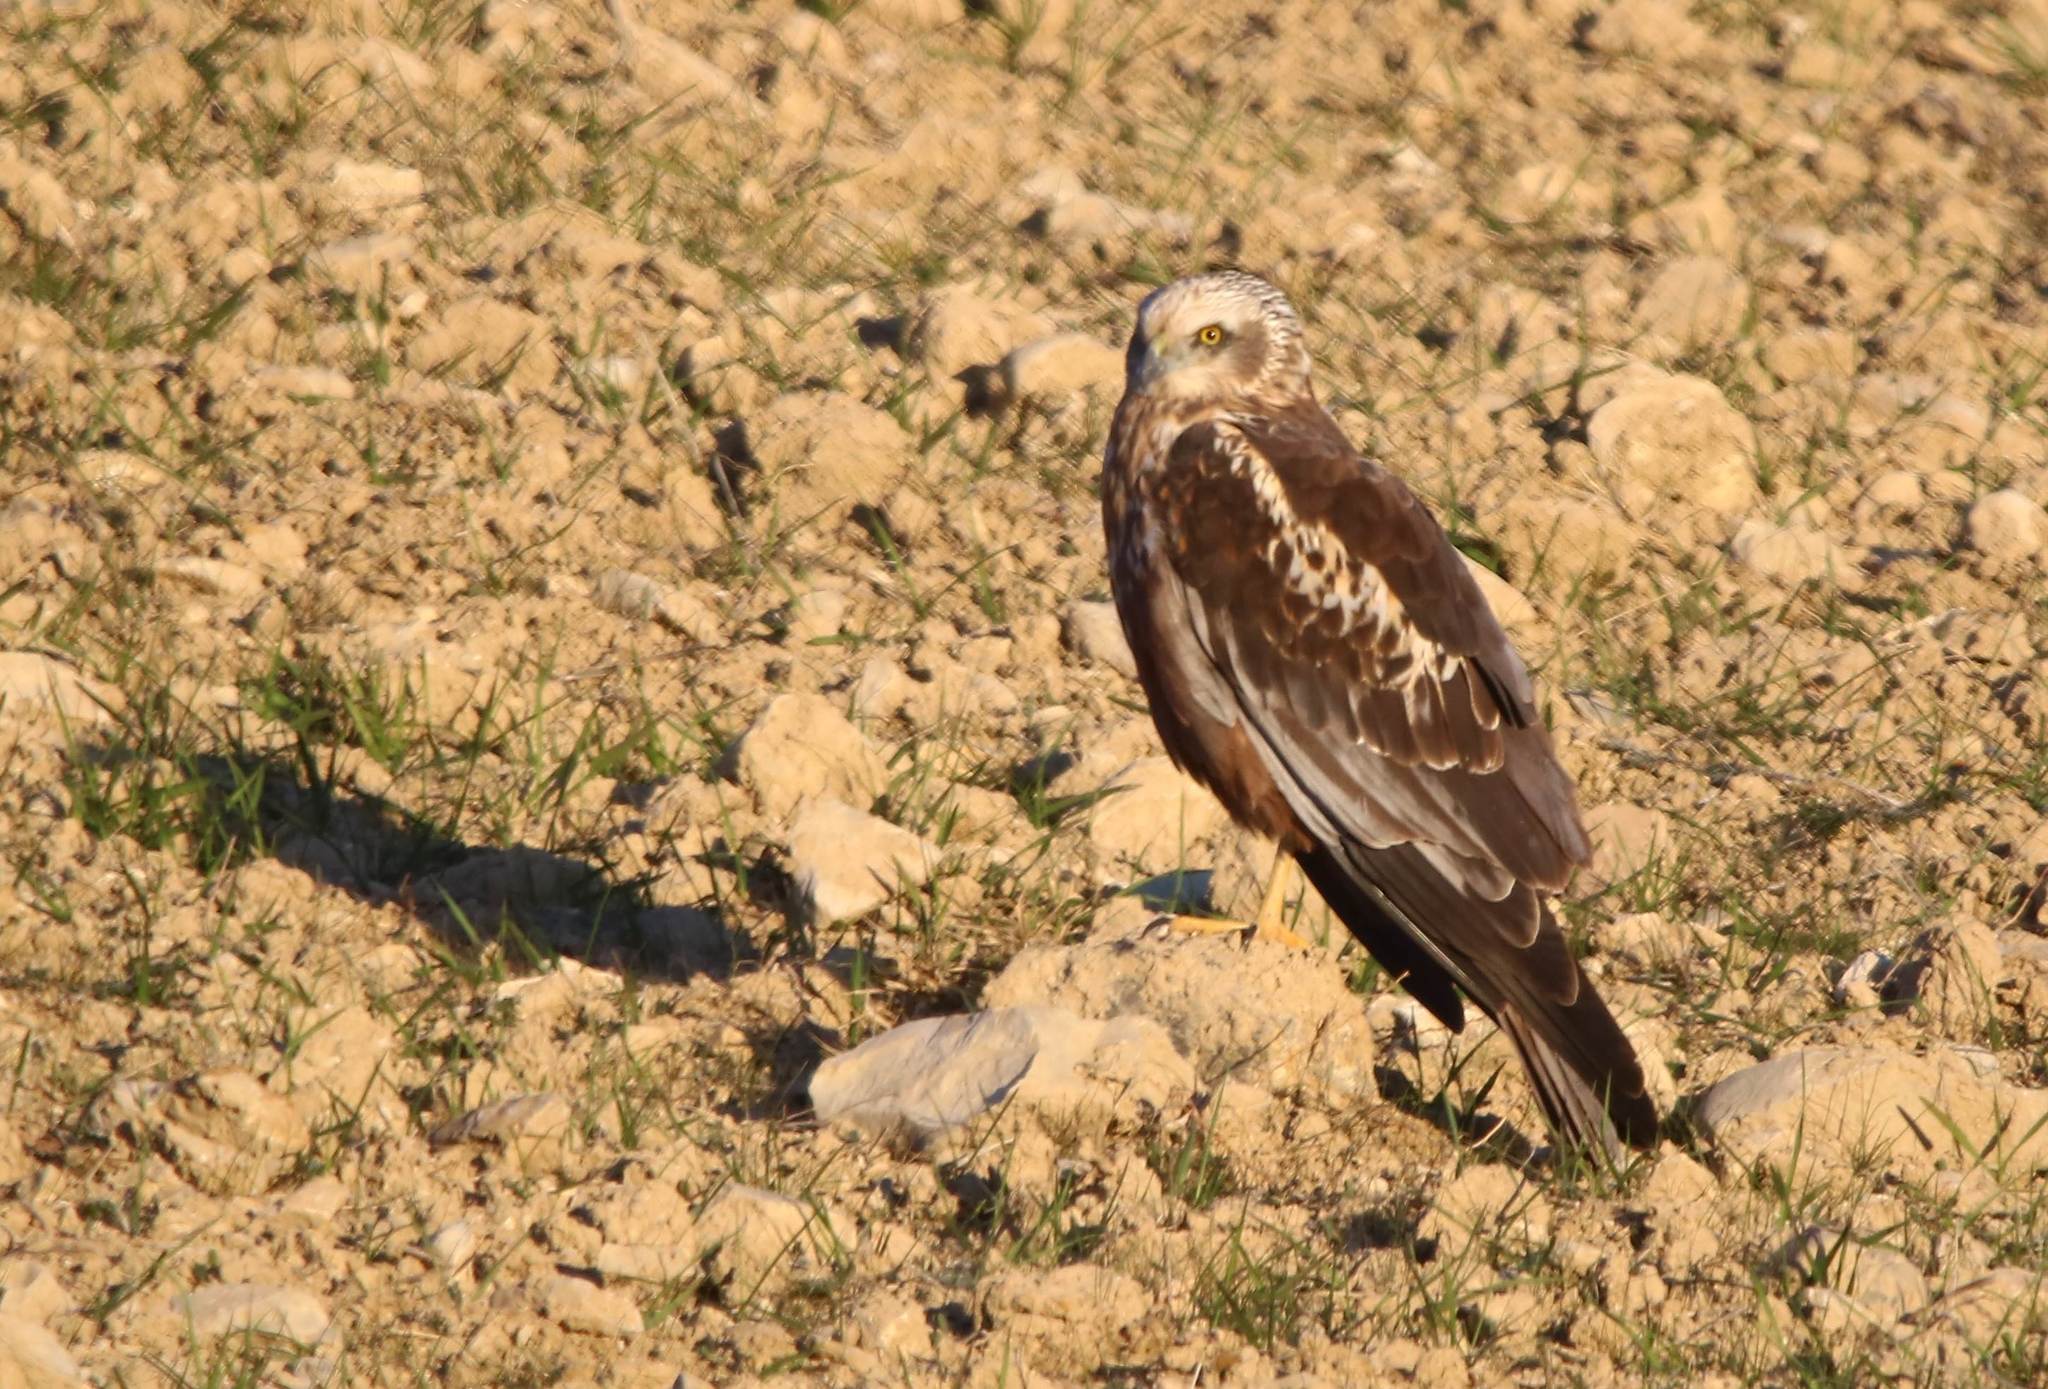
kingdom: Animalia
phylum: Chordata
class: Aves
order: Accipitriformes
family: Accipitridae
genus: Circus
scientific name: Circus aeruginosus
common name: Western marsh harrier
